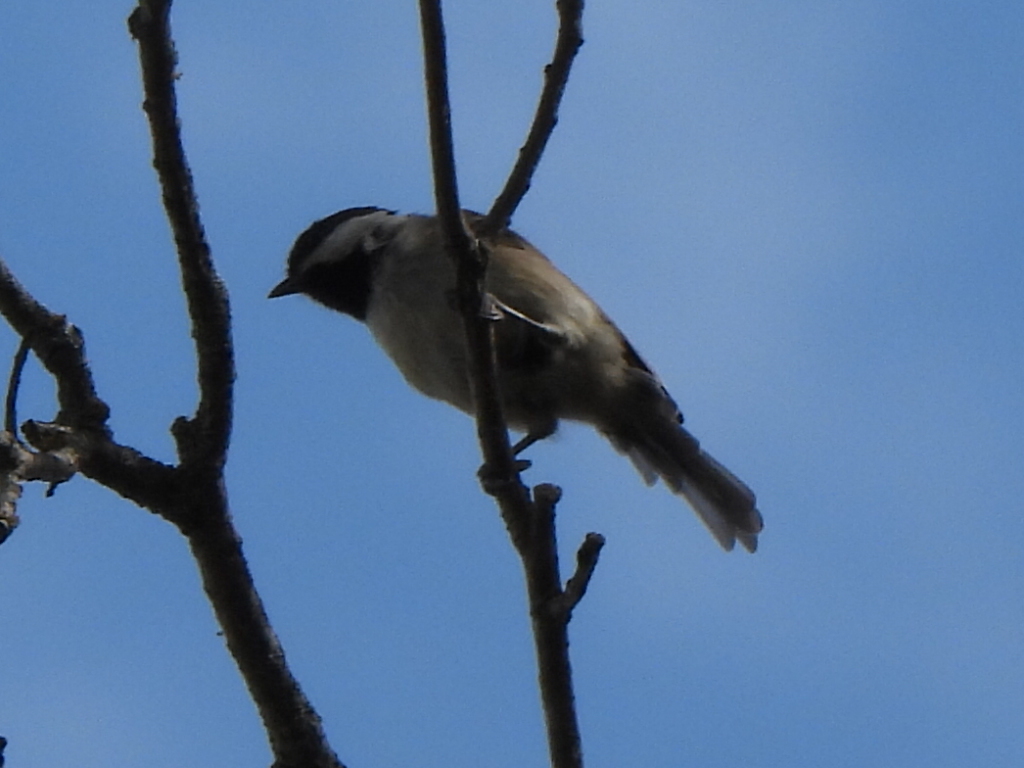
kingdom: Animalia
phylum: Chordata
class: Aves
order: Passeriformes
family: Paridae
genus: Poecile
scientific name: Poecile carolinensis
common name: Carolina chickadee
